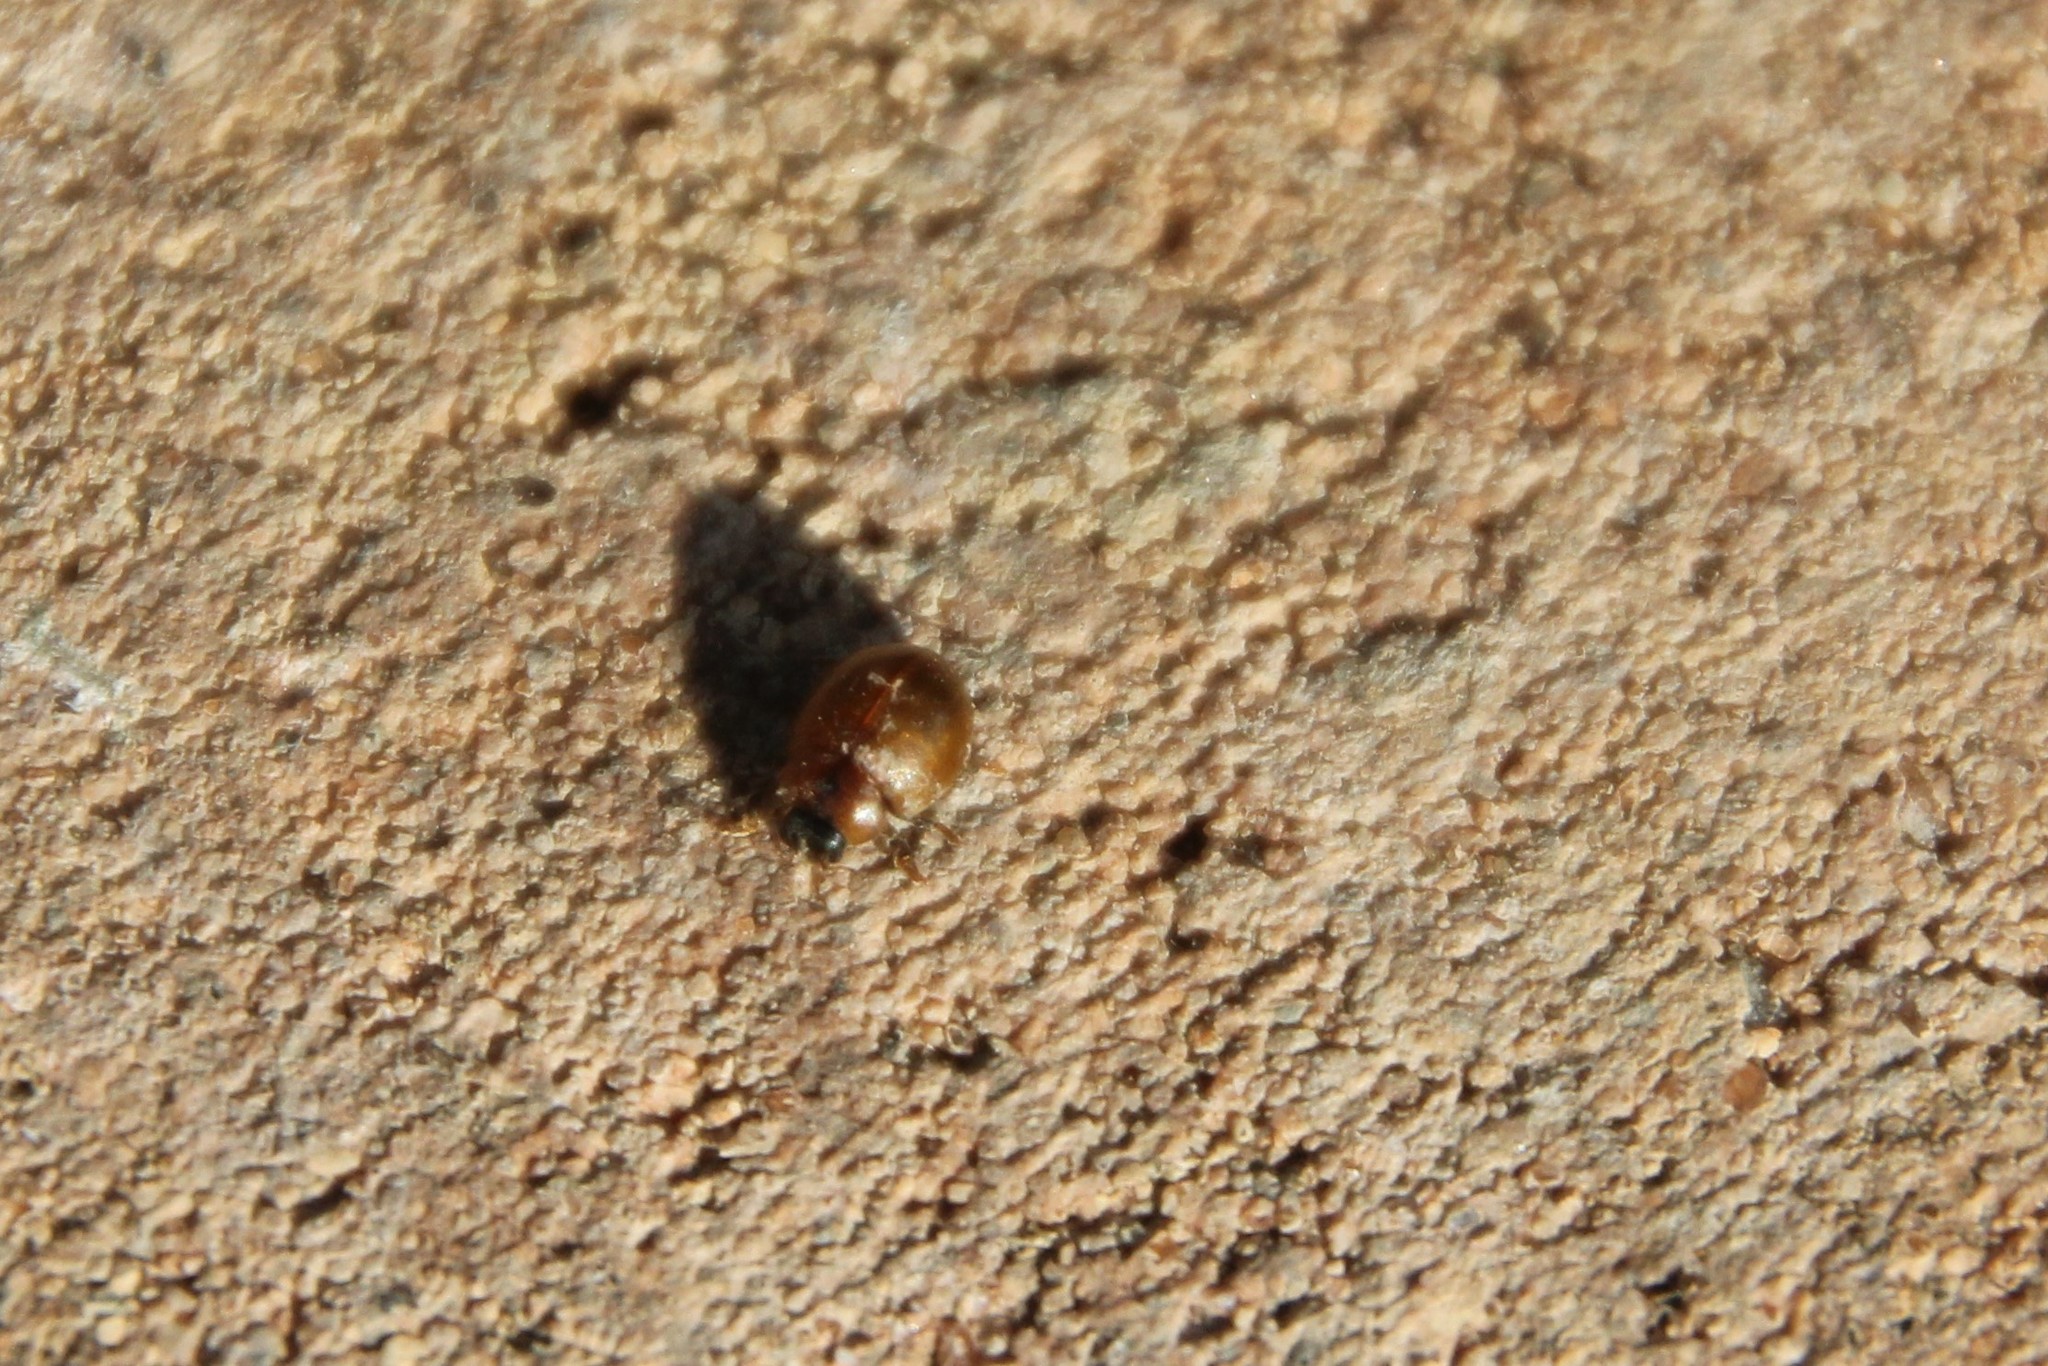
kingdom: Animalia
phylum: Arthropoda
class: Insecta
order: Coleoptera
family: Coccinellidae
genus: Cynegetis
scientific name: Cynegetis impunctata
